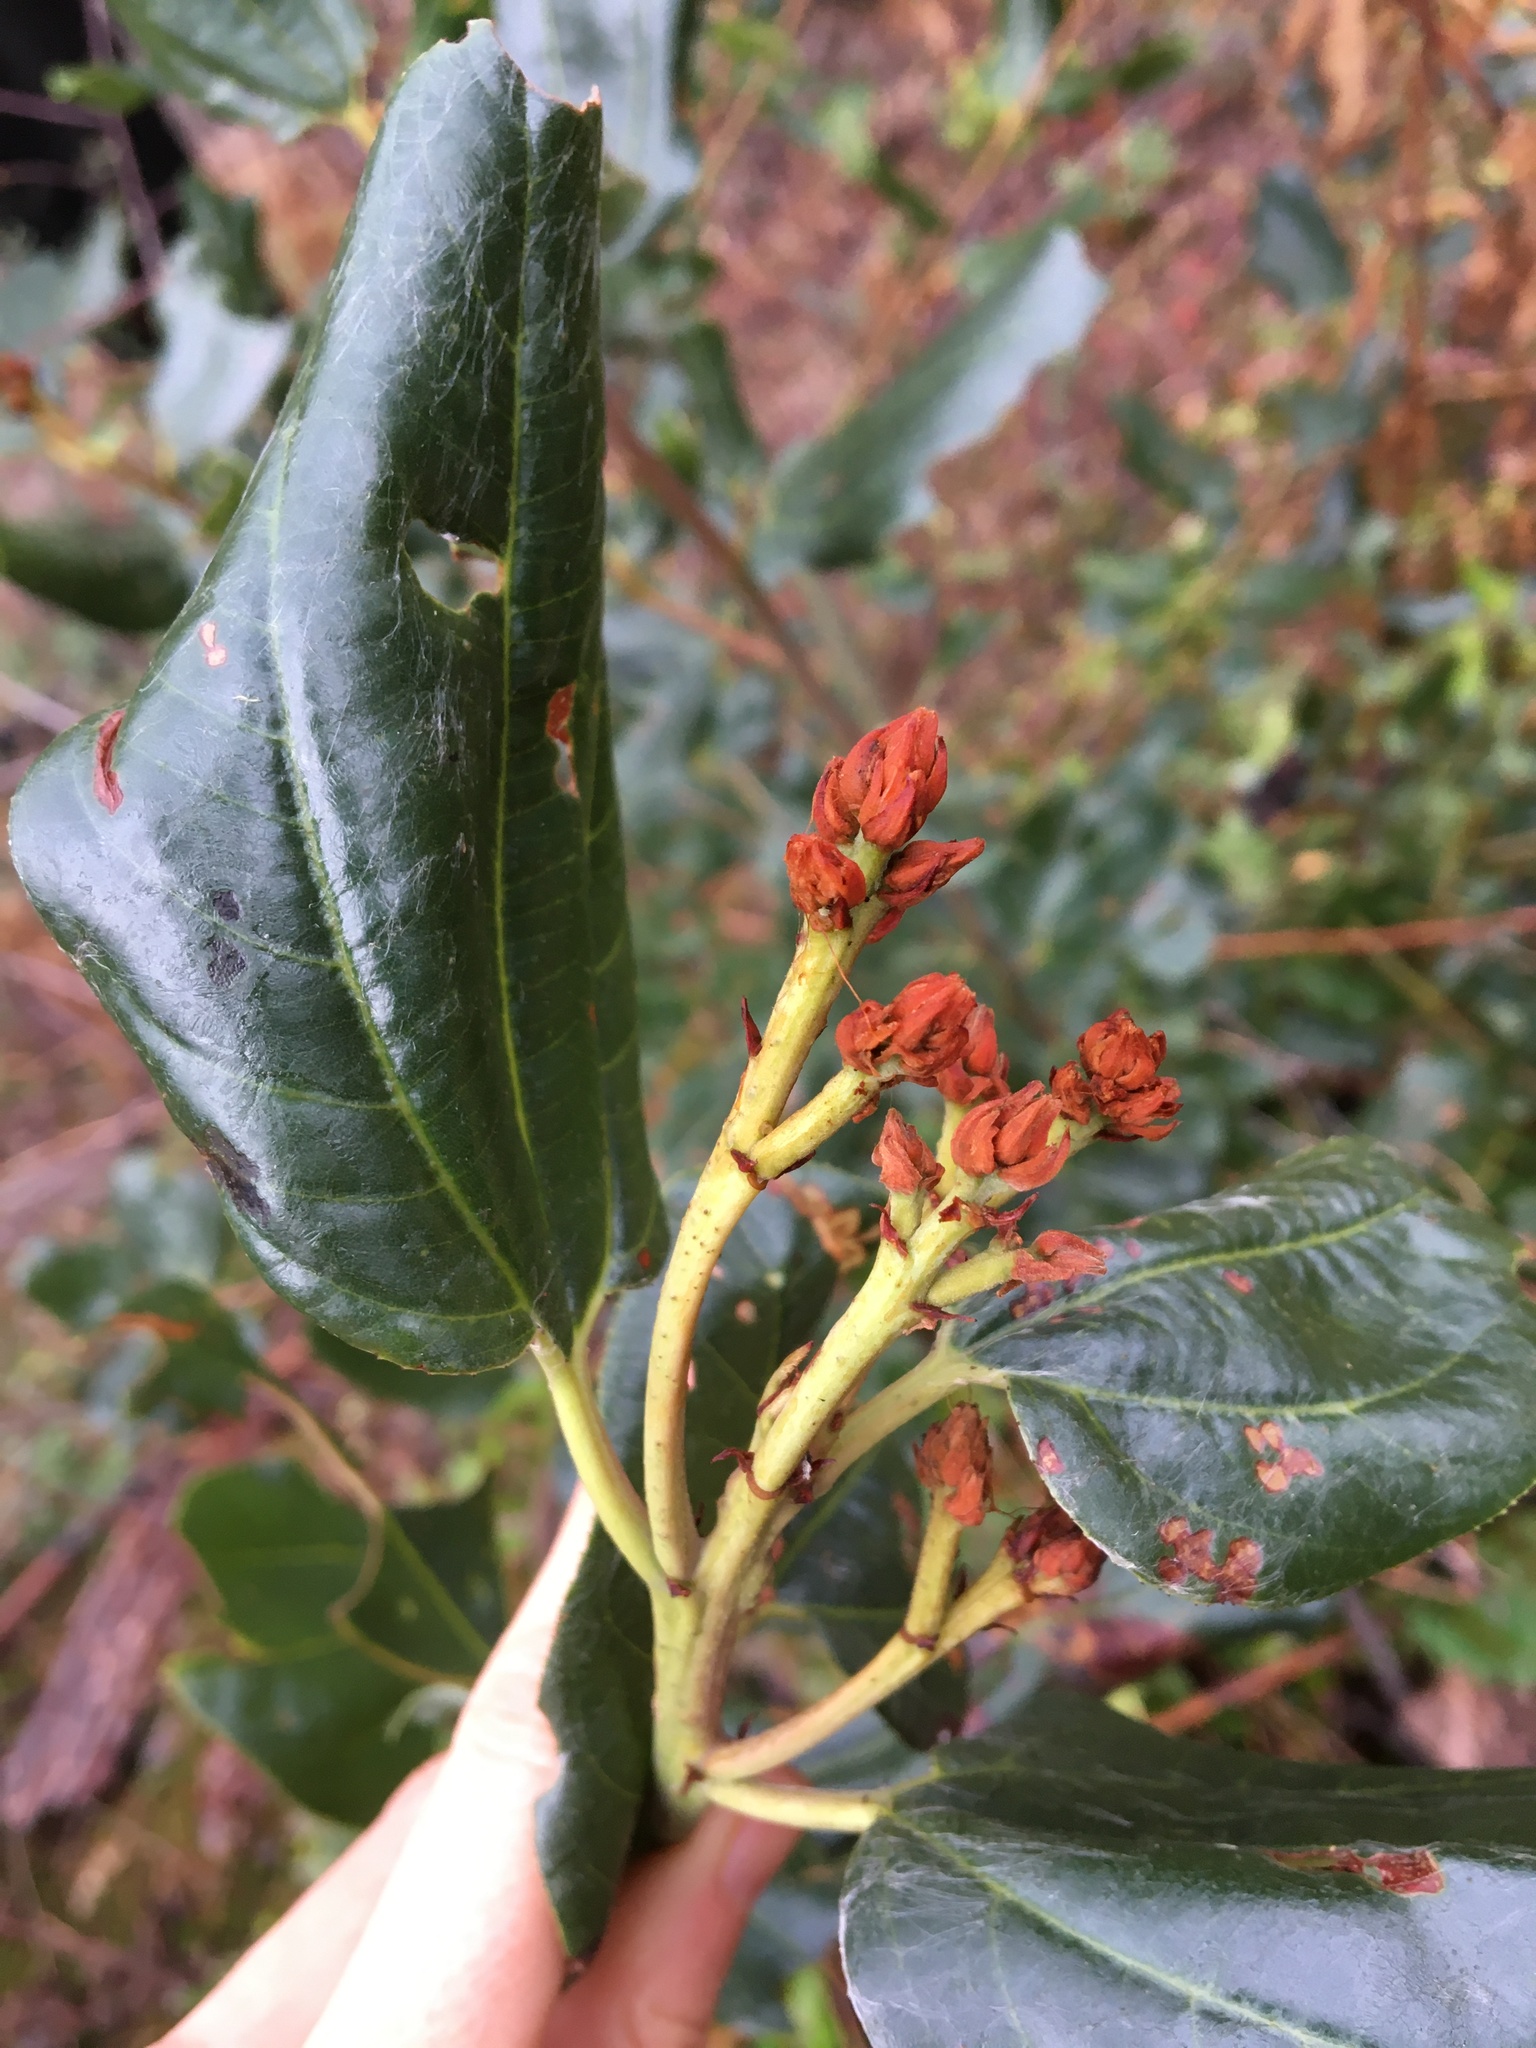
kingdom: Plantae
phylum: Tracheophyta
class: Magnoliopsida
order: Rosales
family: Rhamnaceae
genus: Ceanothus
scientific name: Ceanothus velutinus
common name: Snowbrush
